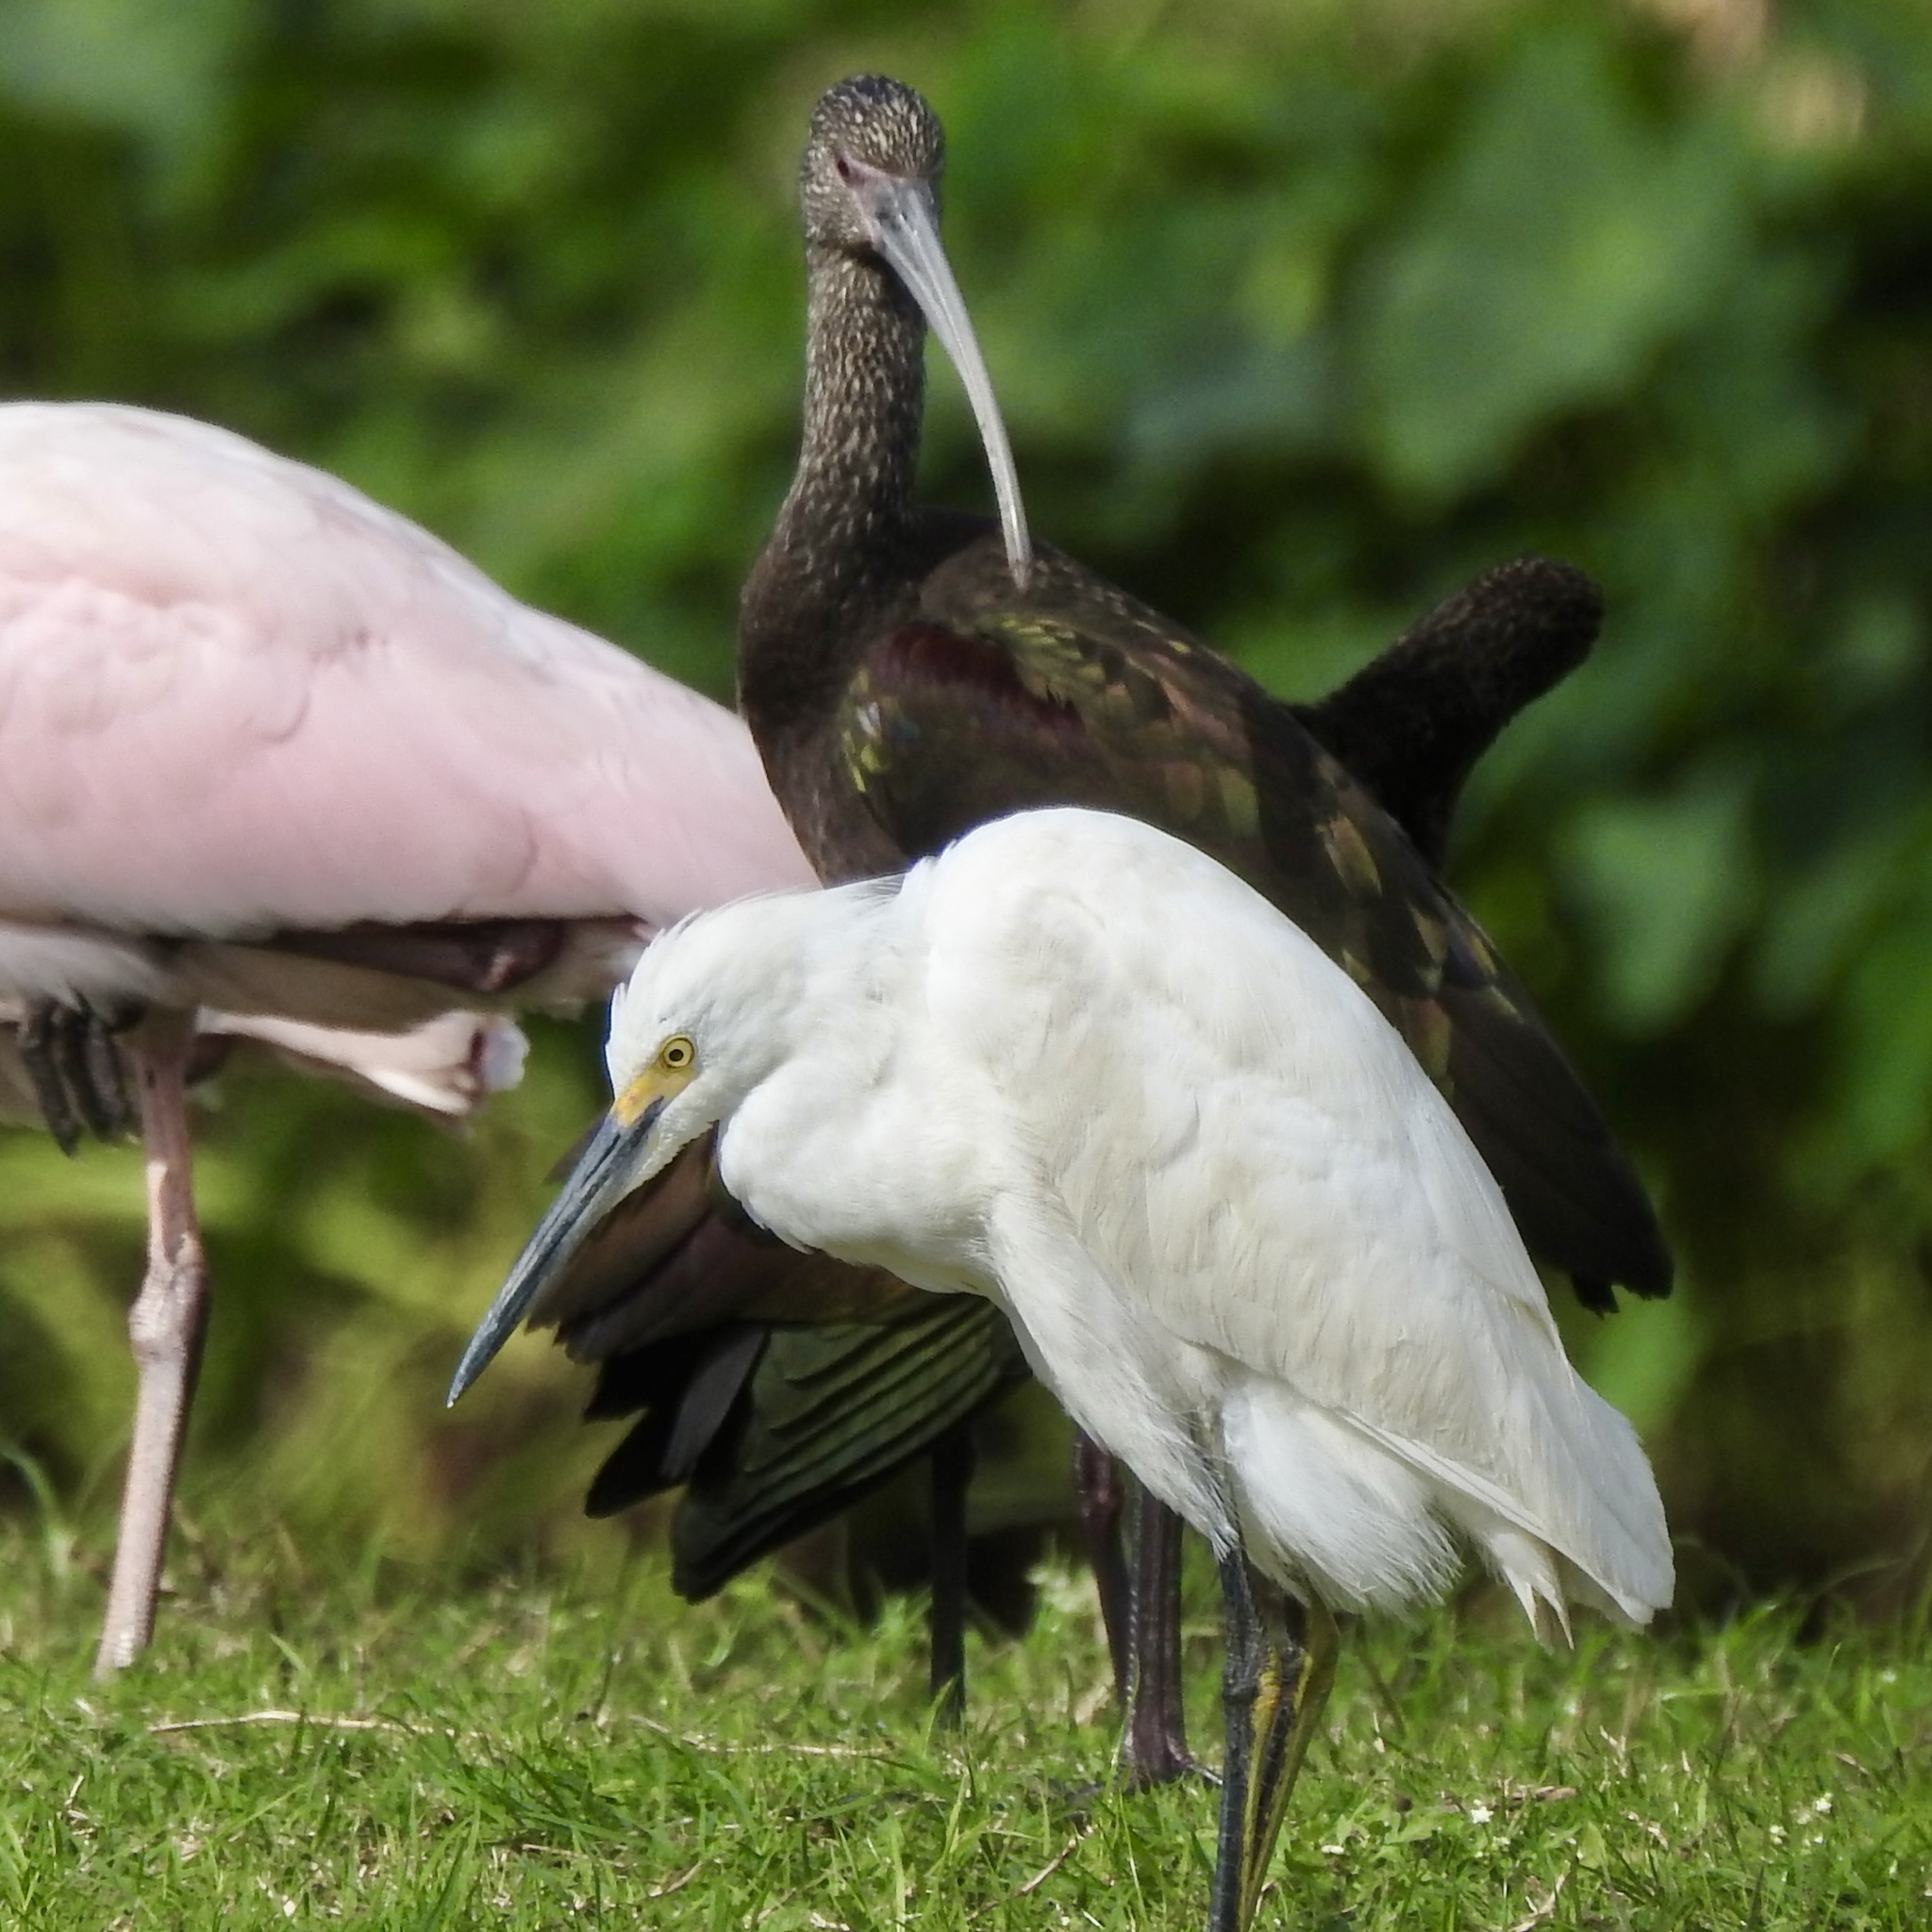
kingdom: Animalia
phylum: Chordata
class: Aves
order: Pelecaniformes
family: Ardeidae
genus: Egretta
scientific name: Egretta thula
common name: Snowy egret
